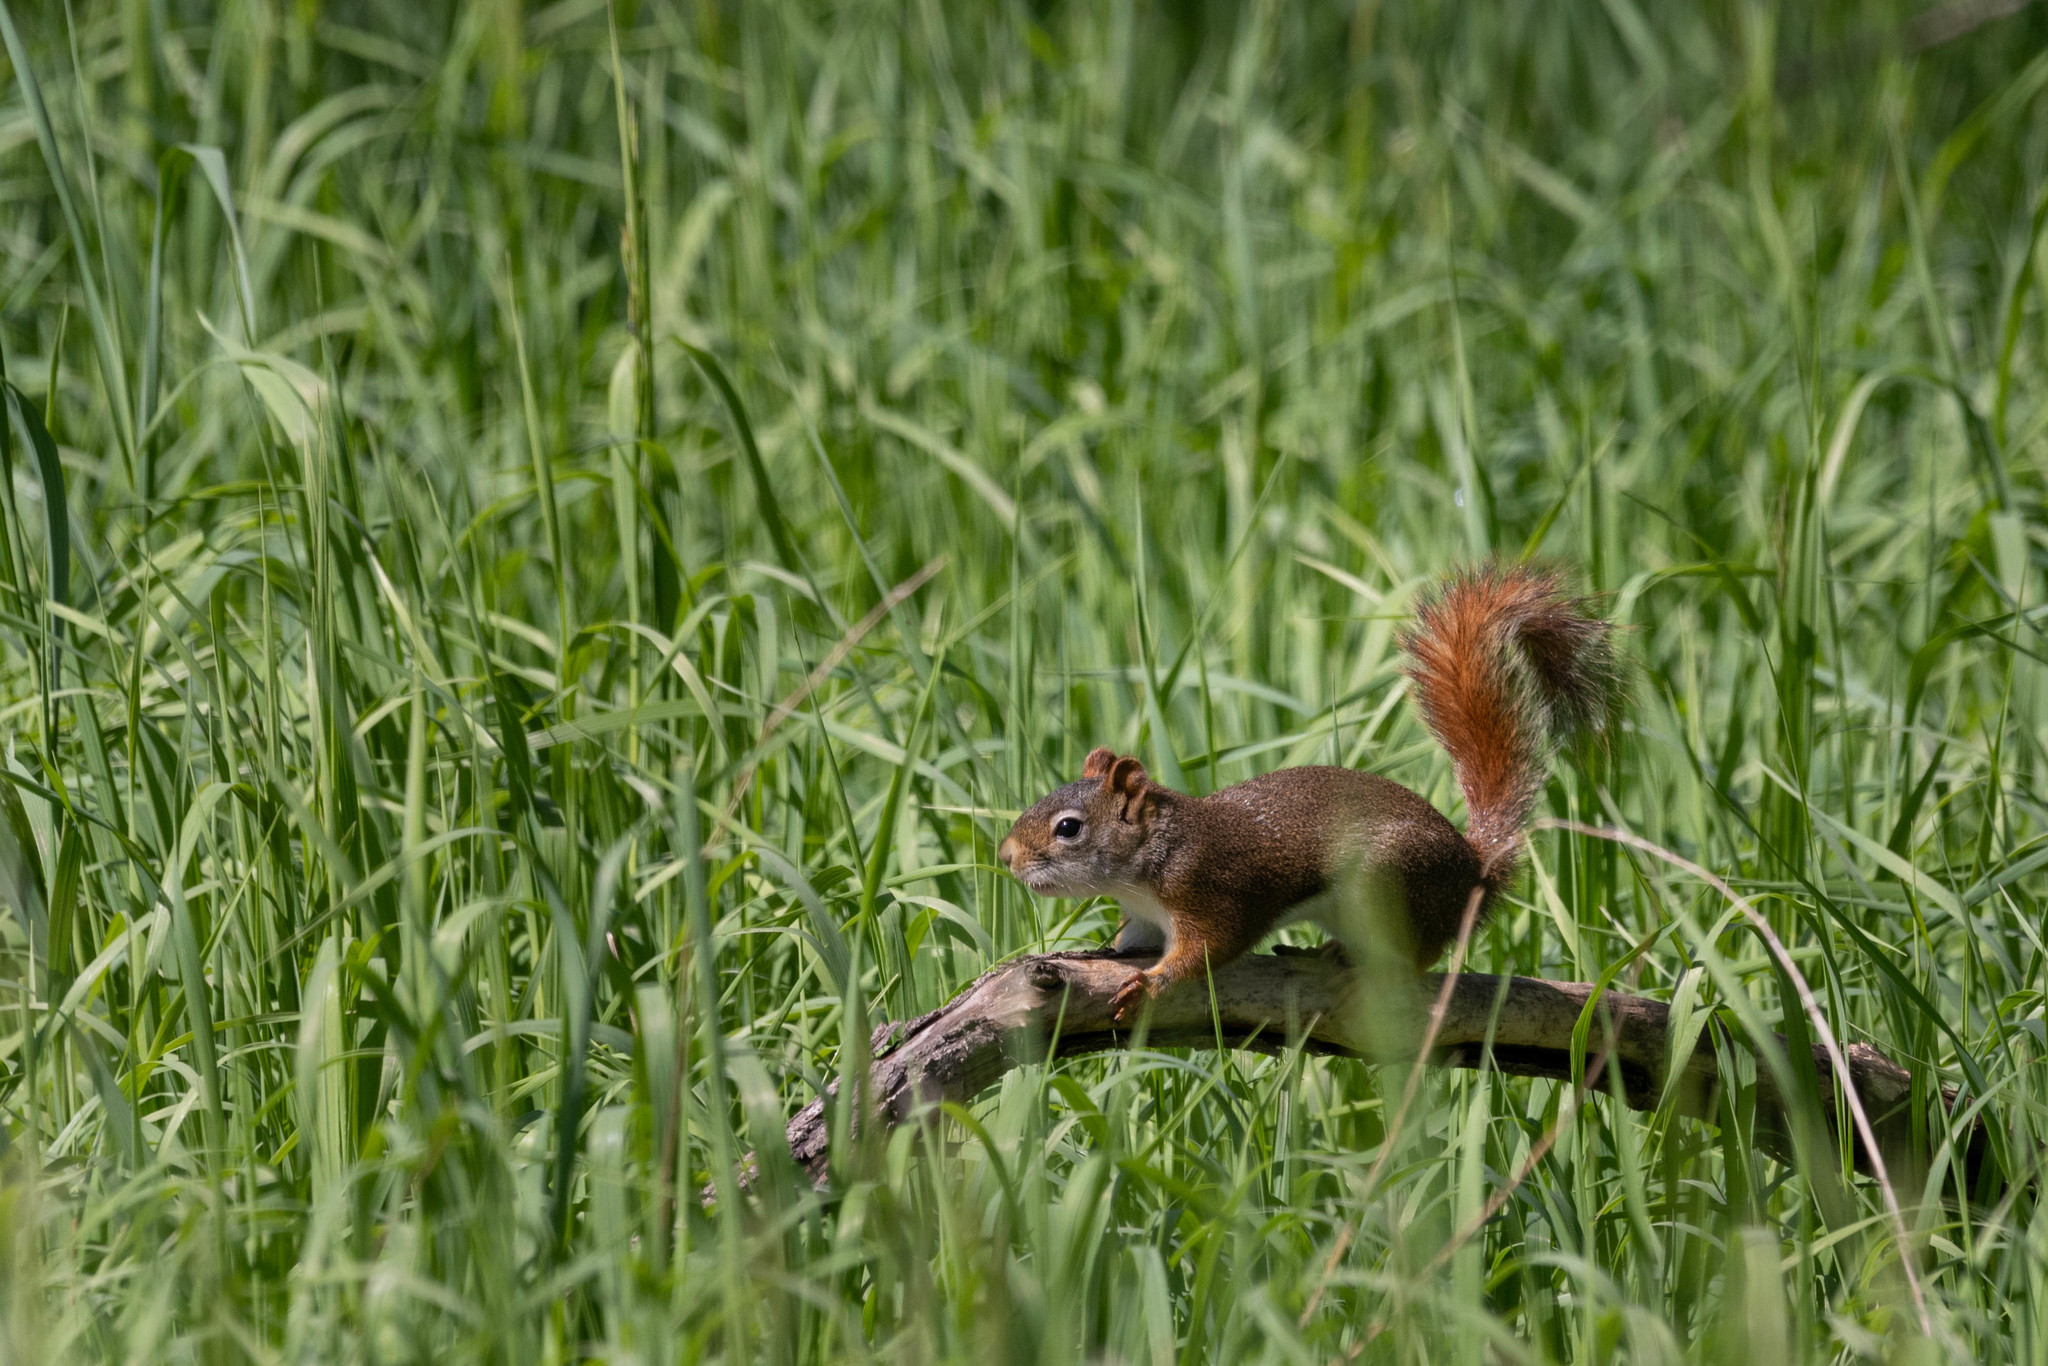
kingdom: Animalia
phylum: Chordata
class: Mammalia
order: Rodentia
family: Sciuridae
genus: Tamiasciurus
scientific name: Tamiasciurus hudsonicus
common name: Red squirrel
